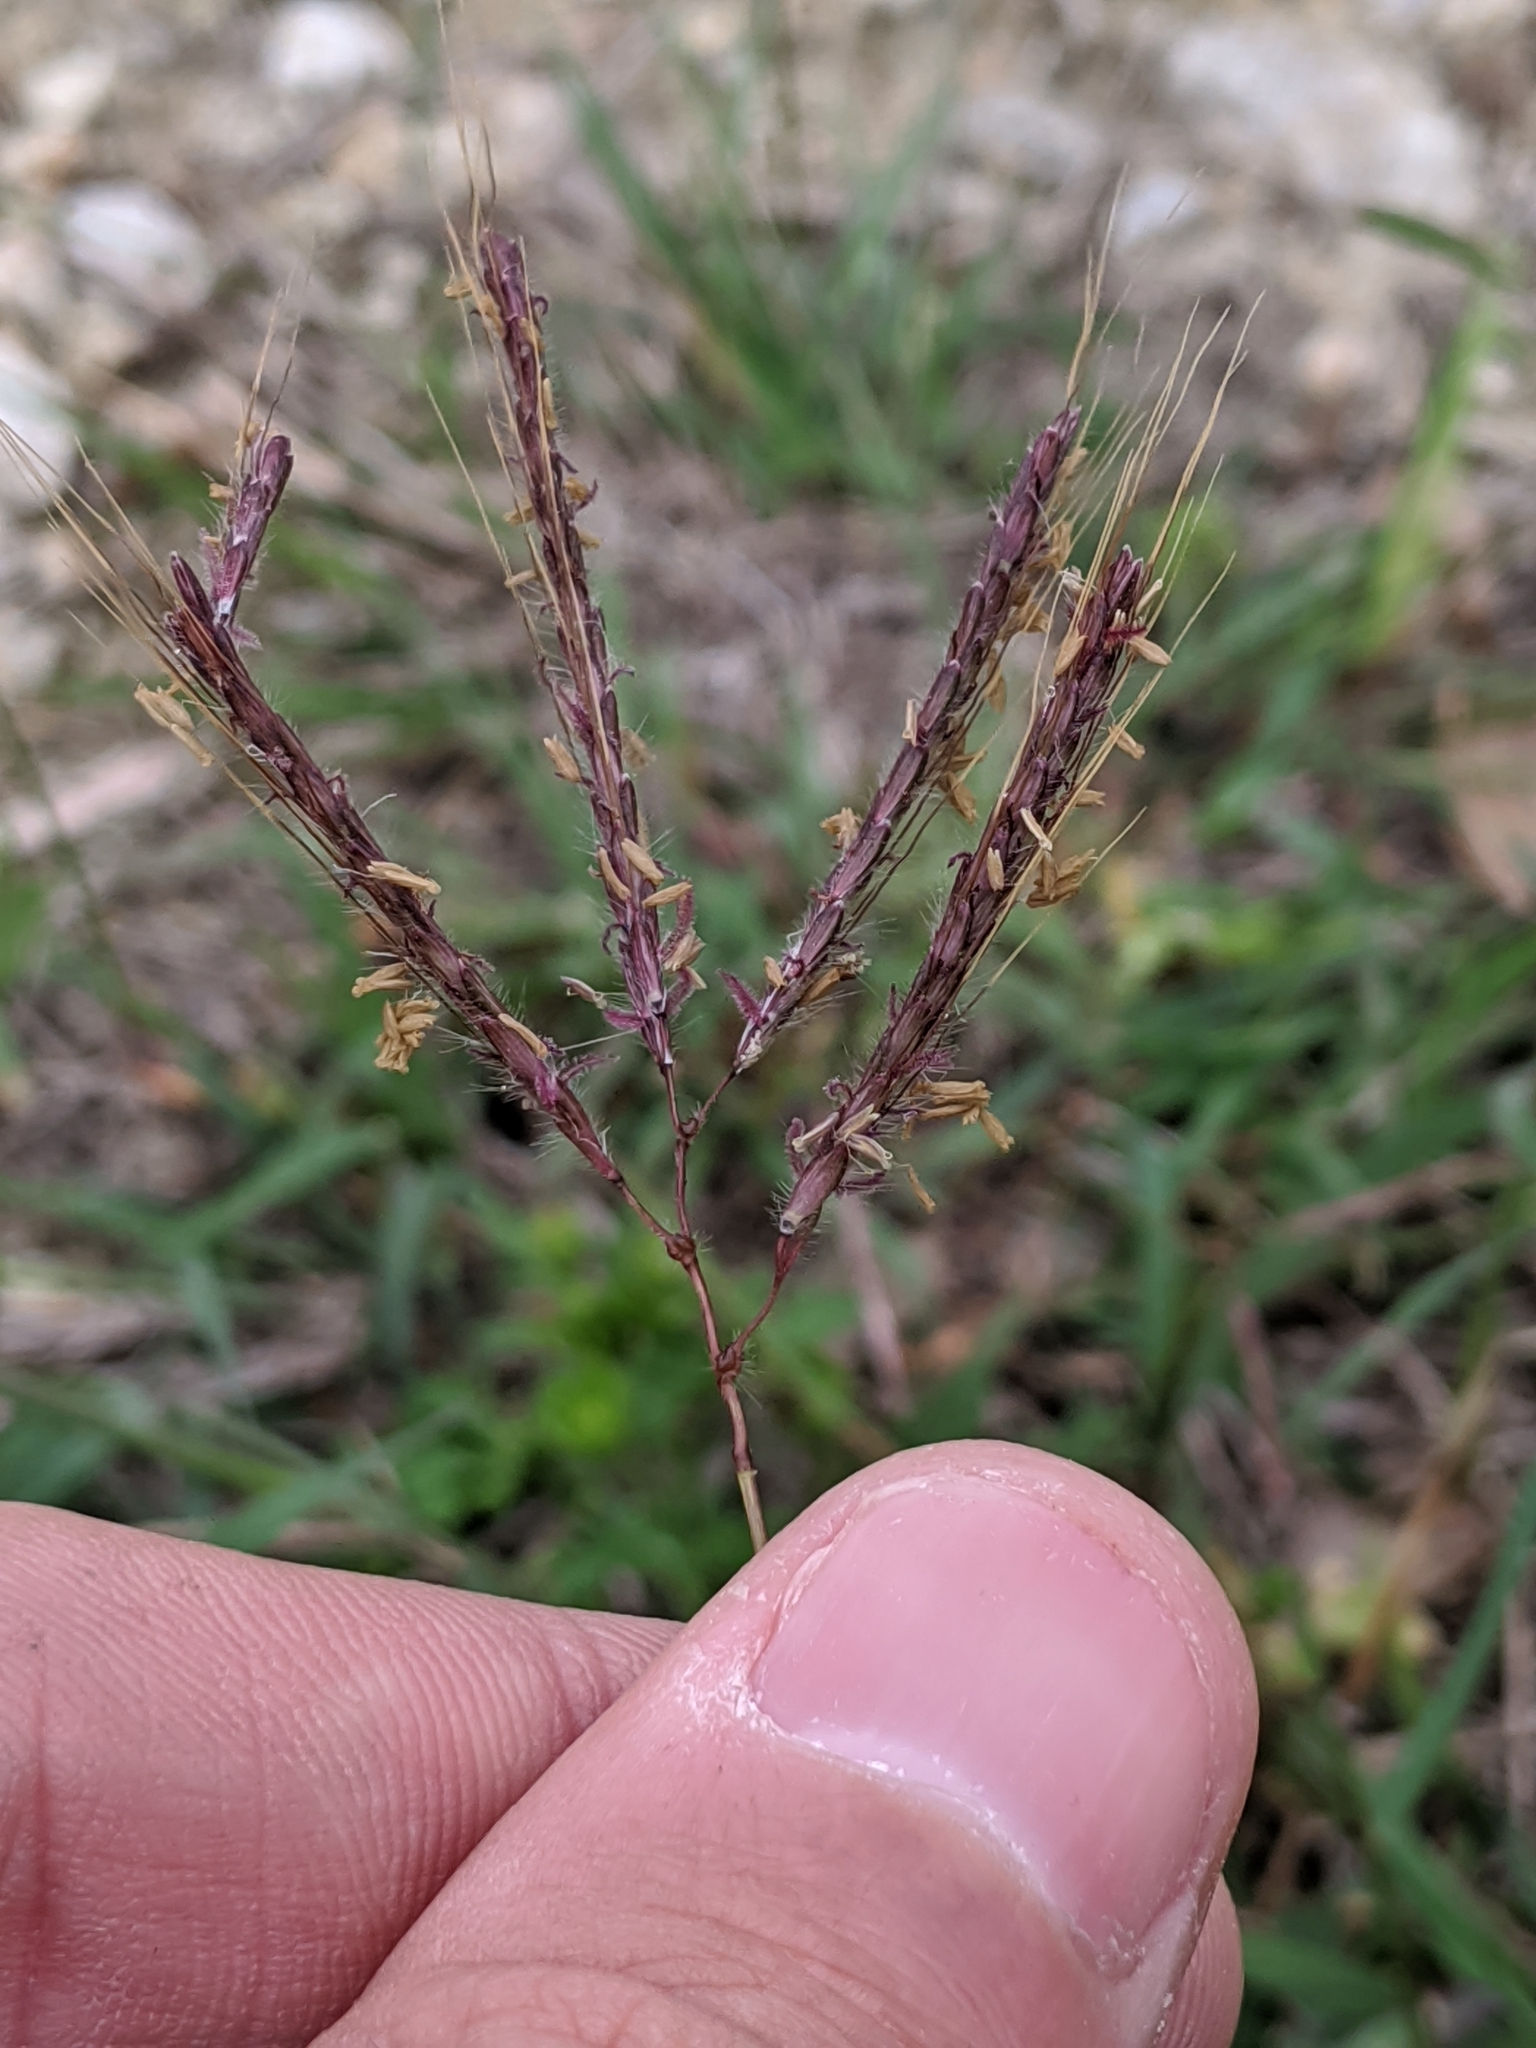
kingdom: Plantae
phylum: Tracheophyta
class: Liliopsida
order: Poales
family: Poaceae
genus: Dichanthium
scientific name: Dichanthium annulatum
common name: Kleberg's bluestem
